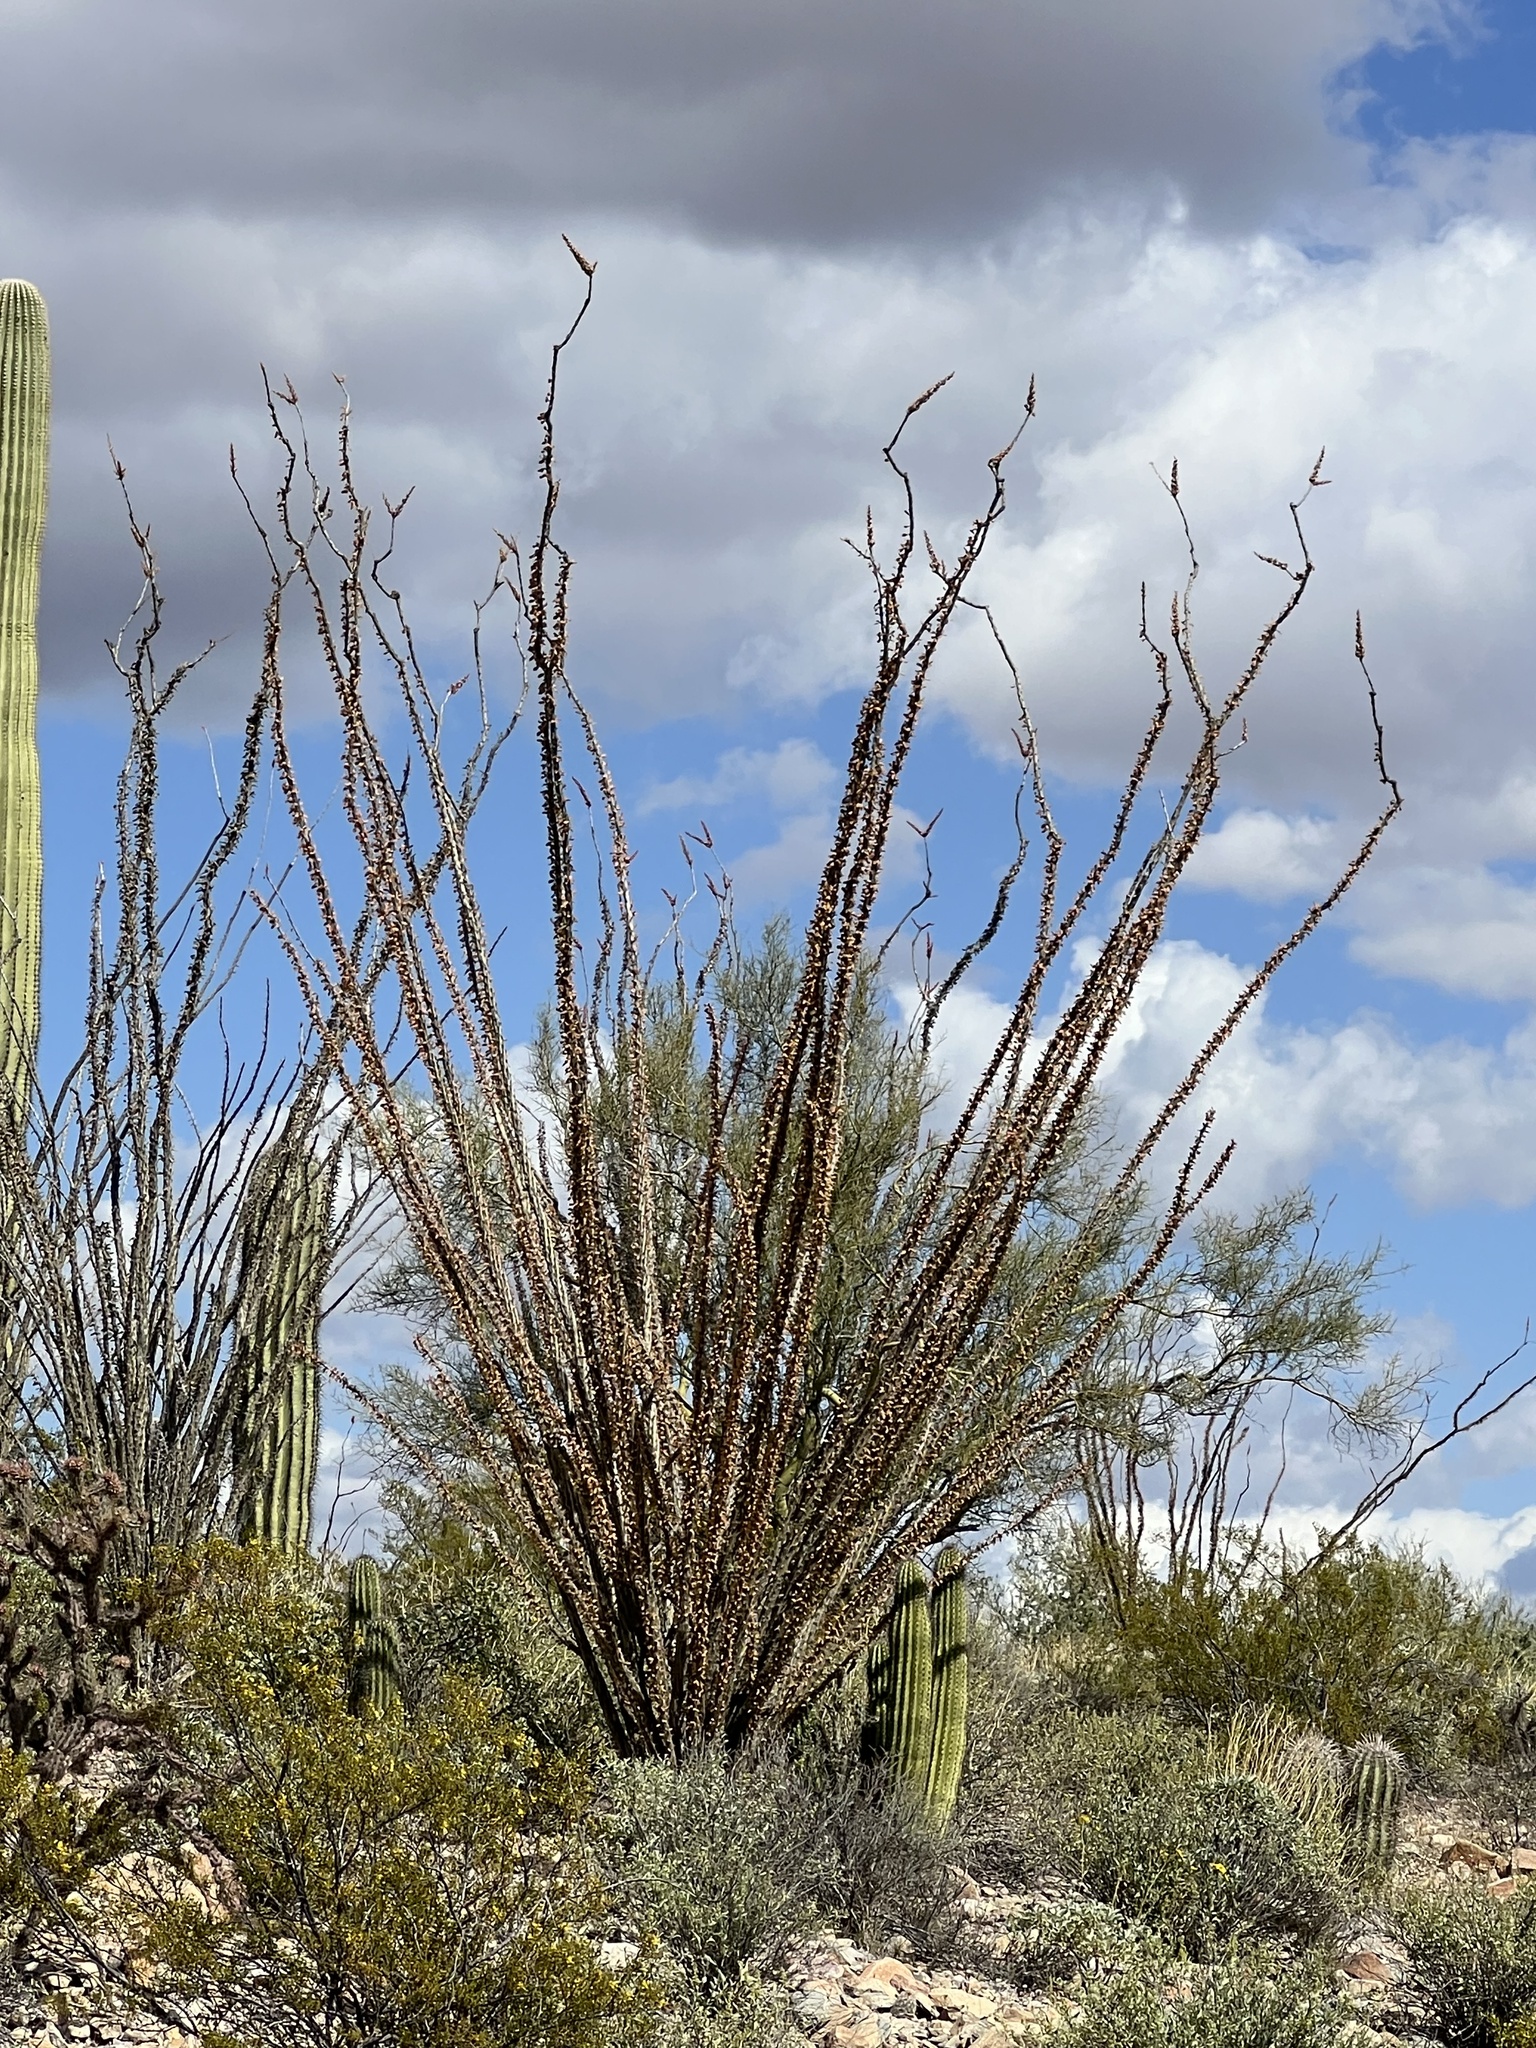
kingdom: Plantae
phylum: Tracheophyta
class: Magnoliopsida
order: Ericales
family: Fouquieriaceae
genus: Fouquieria
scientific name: Fouquieria splendens
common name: Vine-cactus
